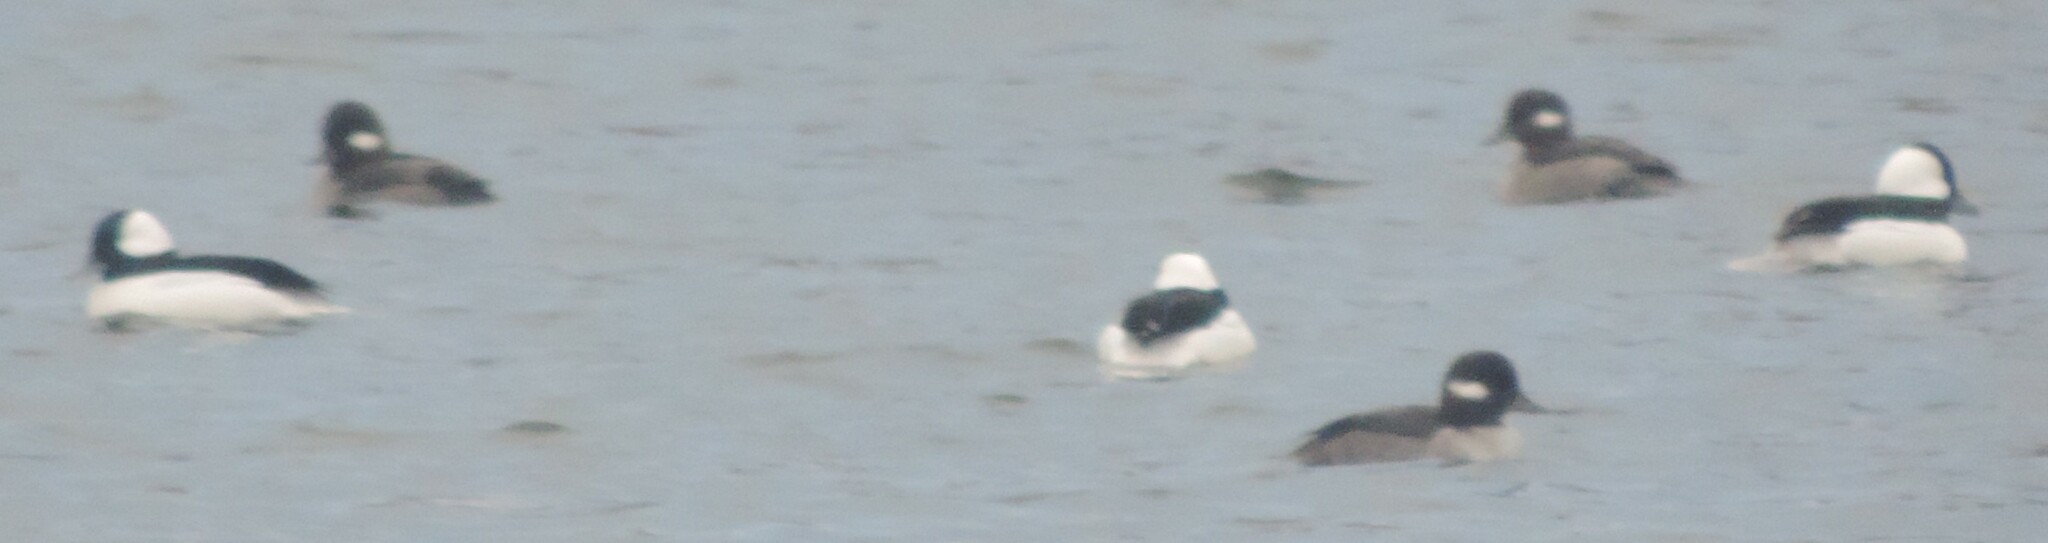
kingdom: Animalia
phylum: Chordata
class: Aves
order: Anseriformes
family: Anatidae
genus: Bucephala
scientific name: Bucephala albeola
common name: Bufflehead
